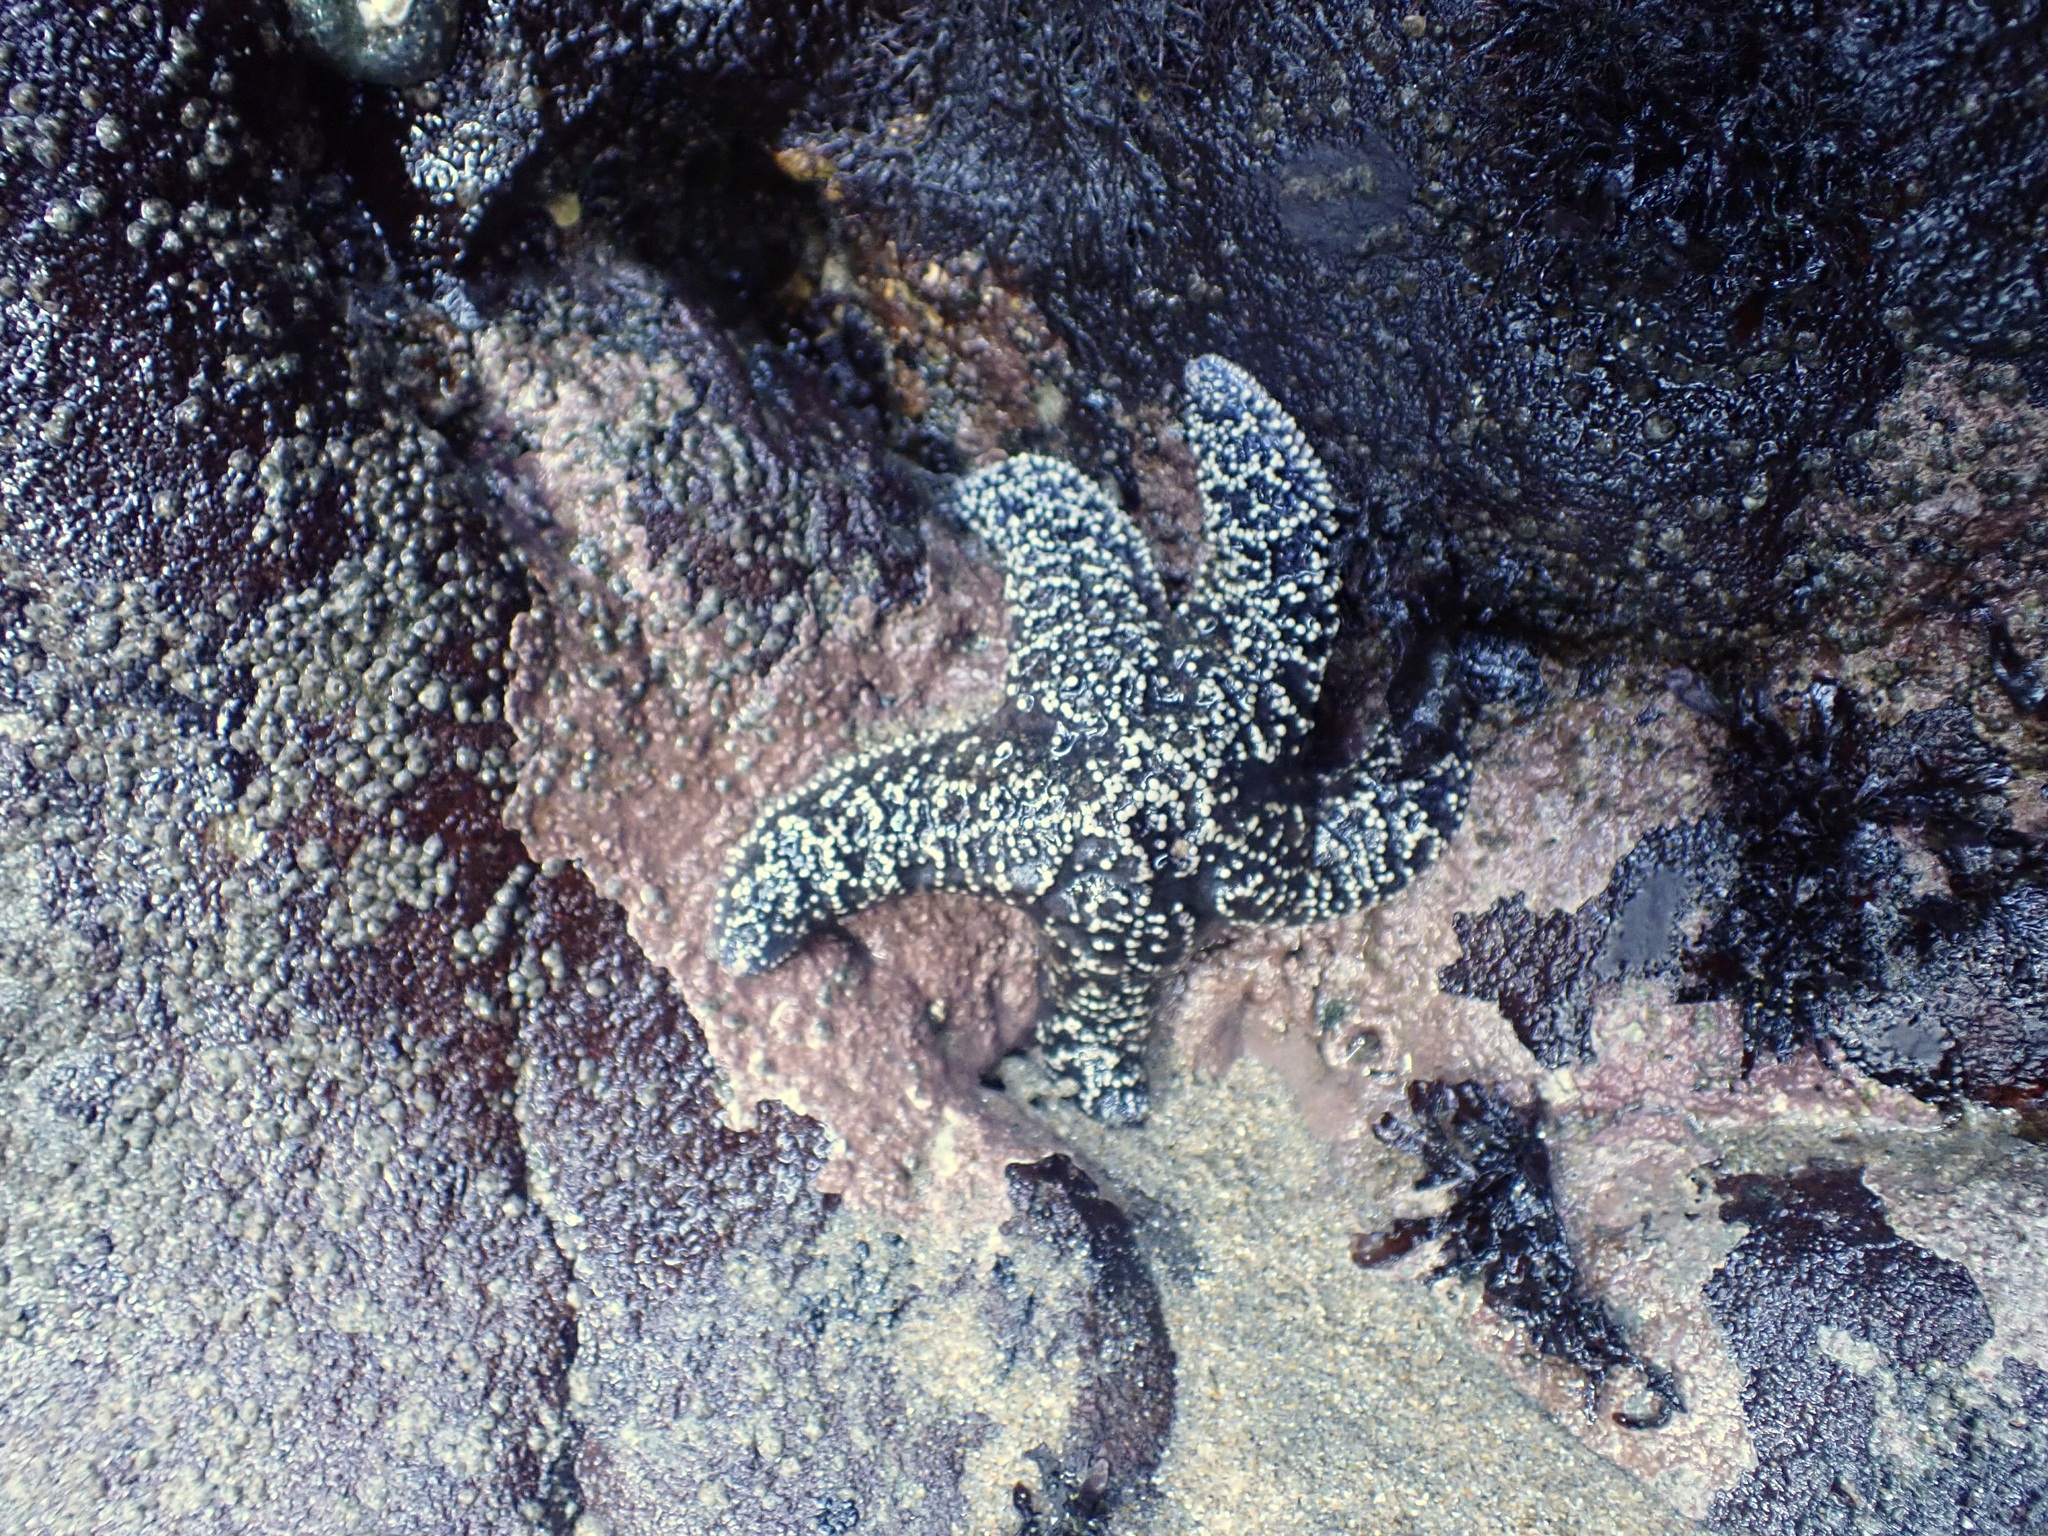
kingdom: Animalia
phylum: Echinodermata
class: Asteroidea
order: Forcipulatida
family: Asteriidae
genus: Pisaster
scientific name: Pisaster ochraceus
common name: Ochre stars
